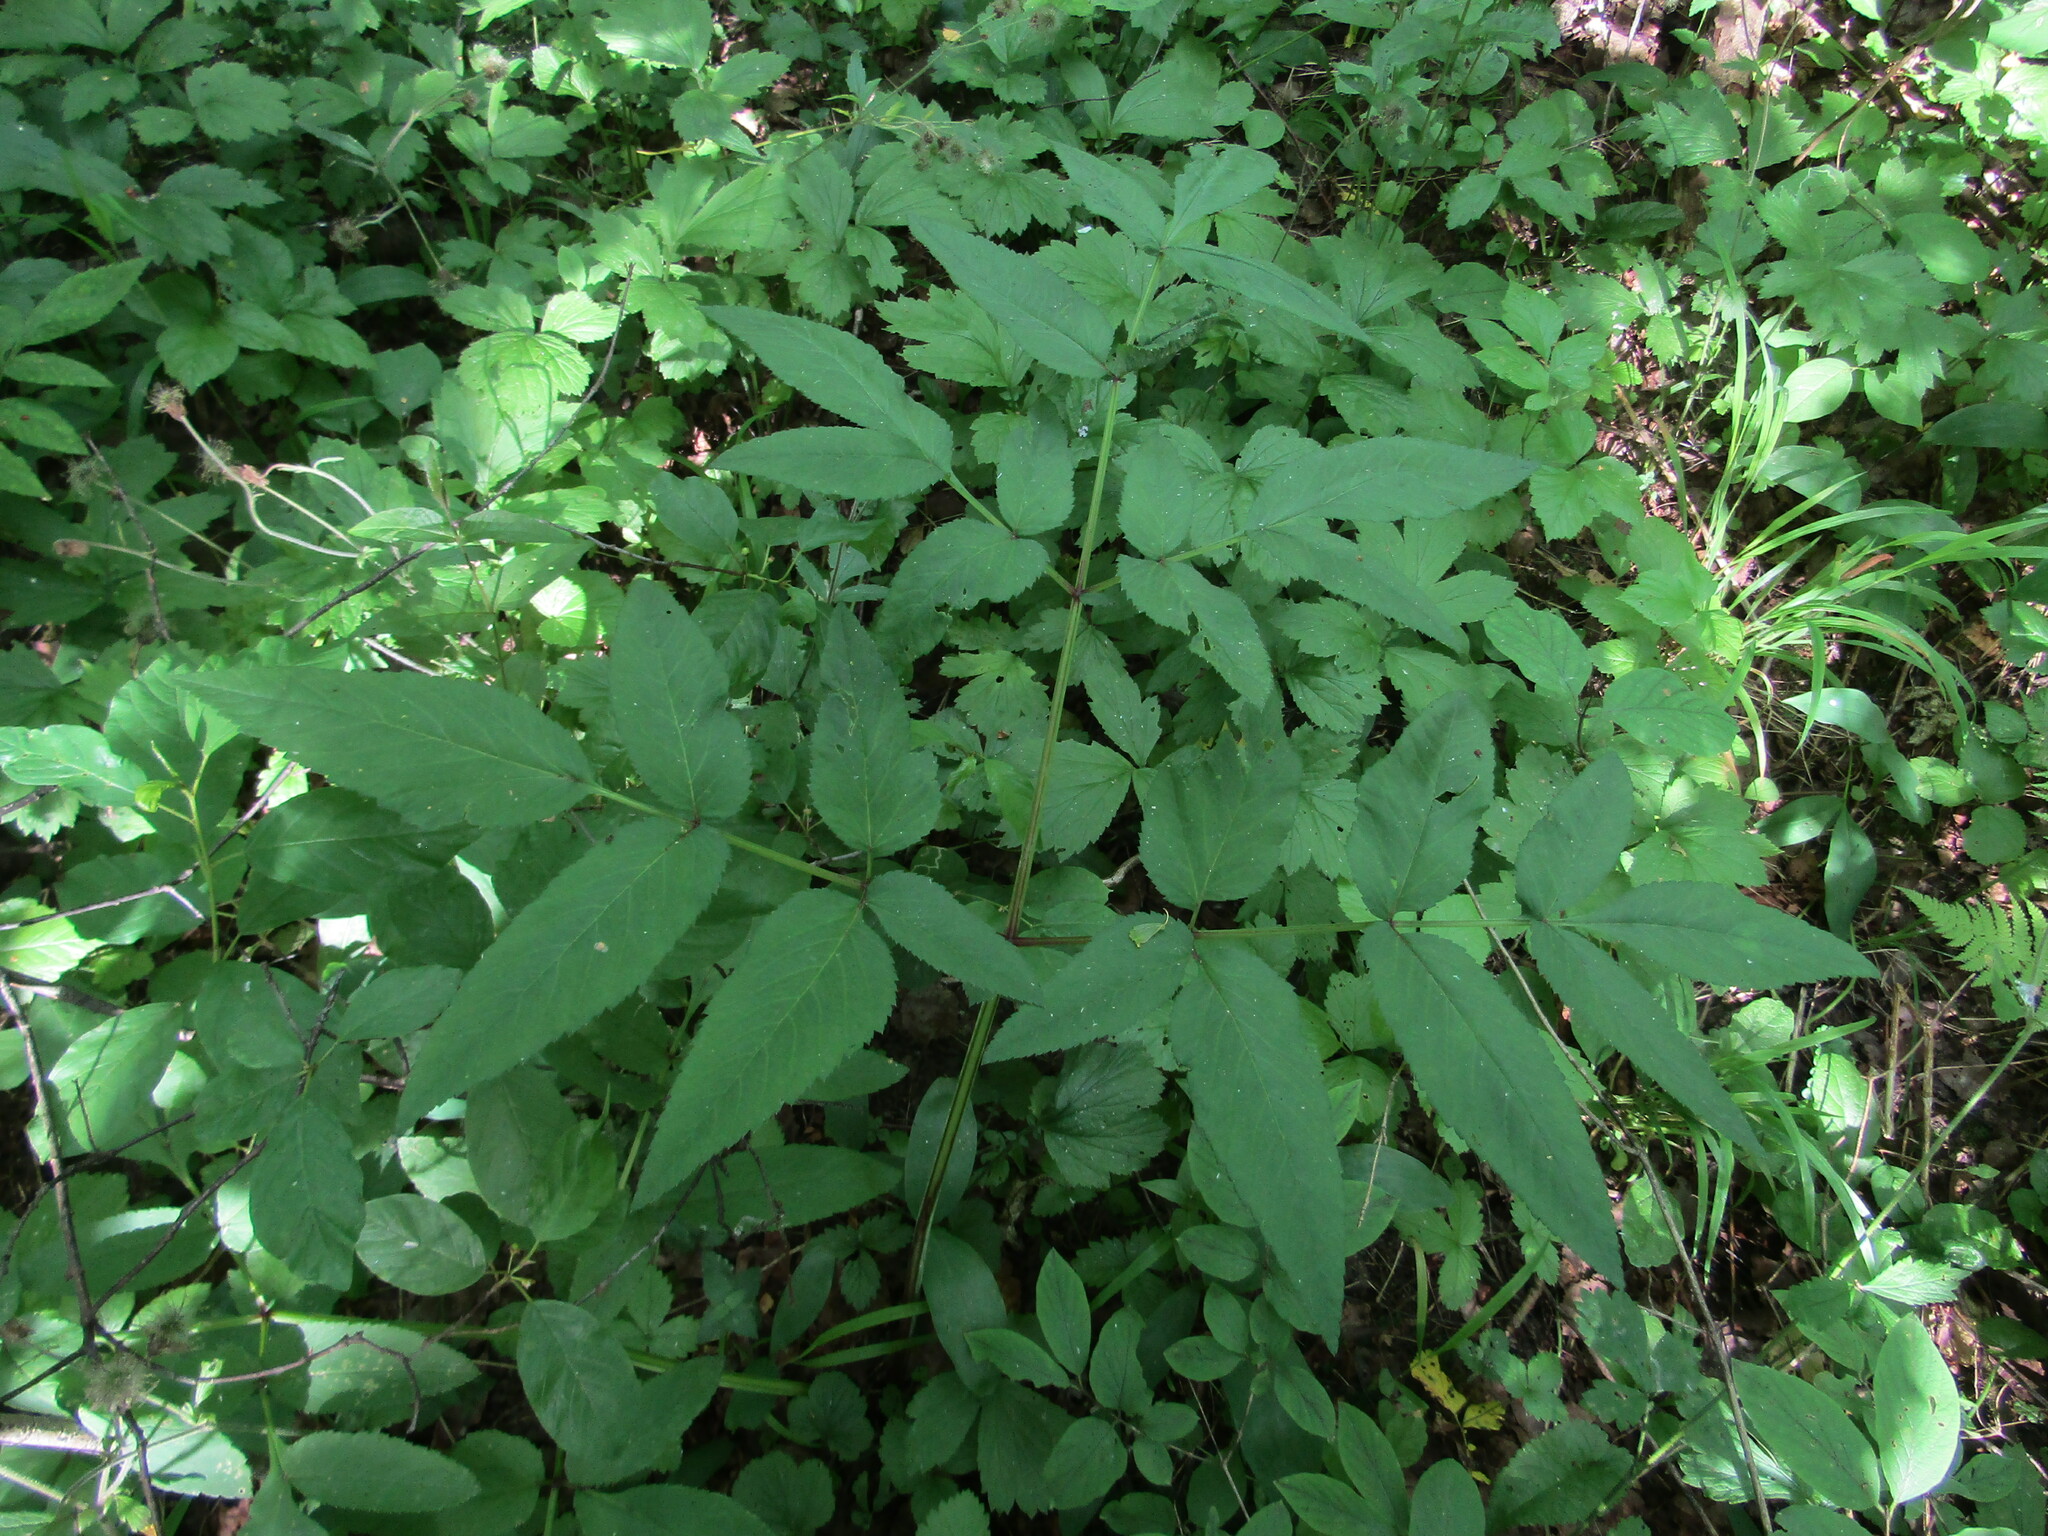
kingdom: Plantae
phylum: Tracheophyta
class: Magnoliopsida
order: Apiales
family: Apiaceae
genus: Angelica
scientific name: Angelica sylvestris
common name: Wild angelica
